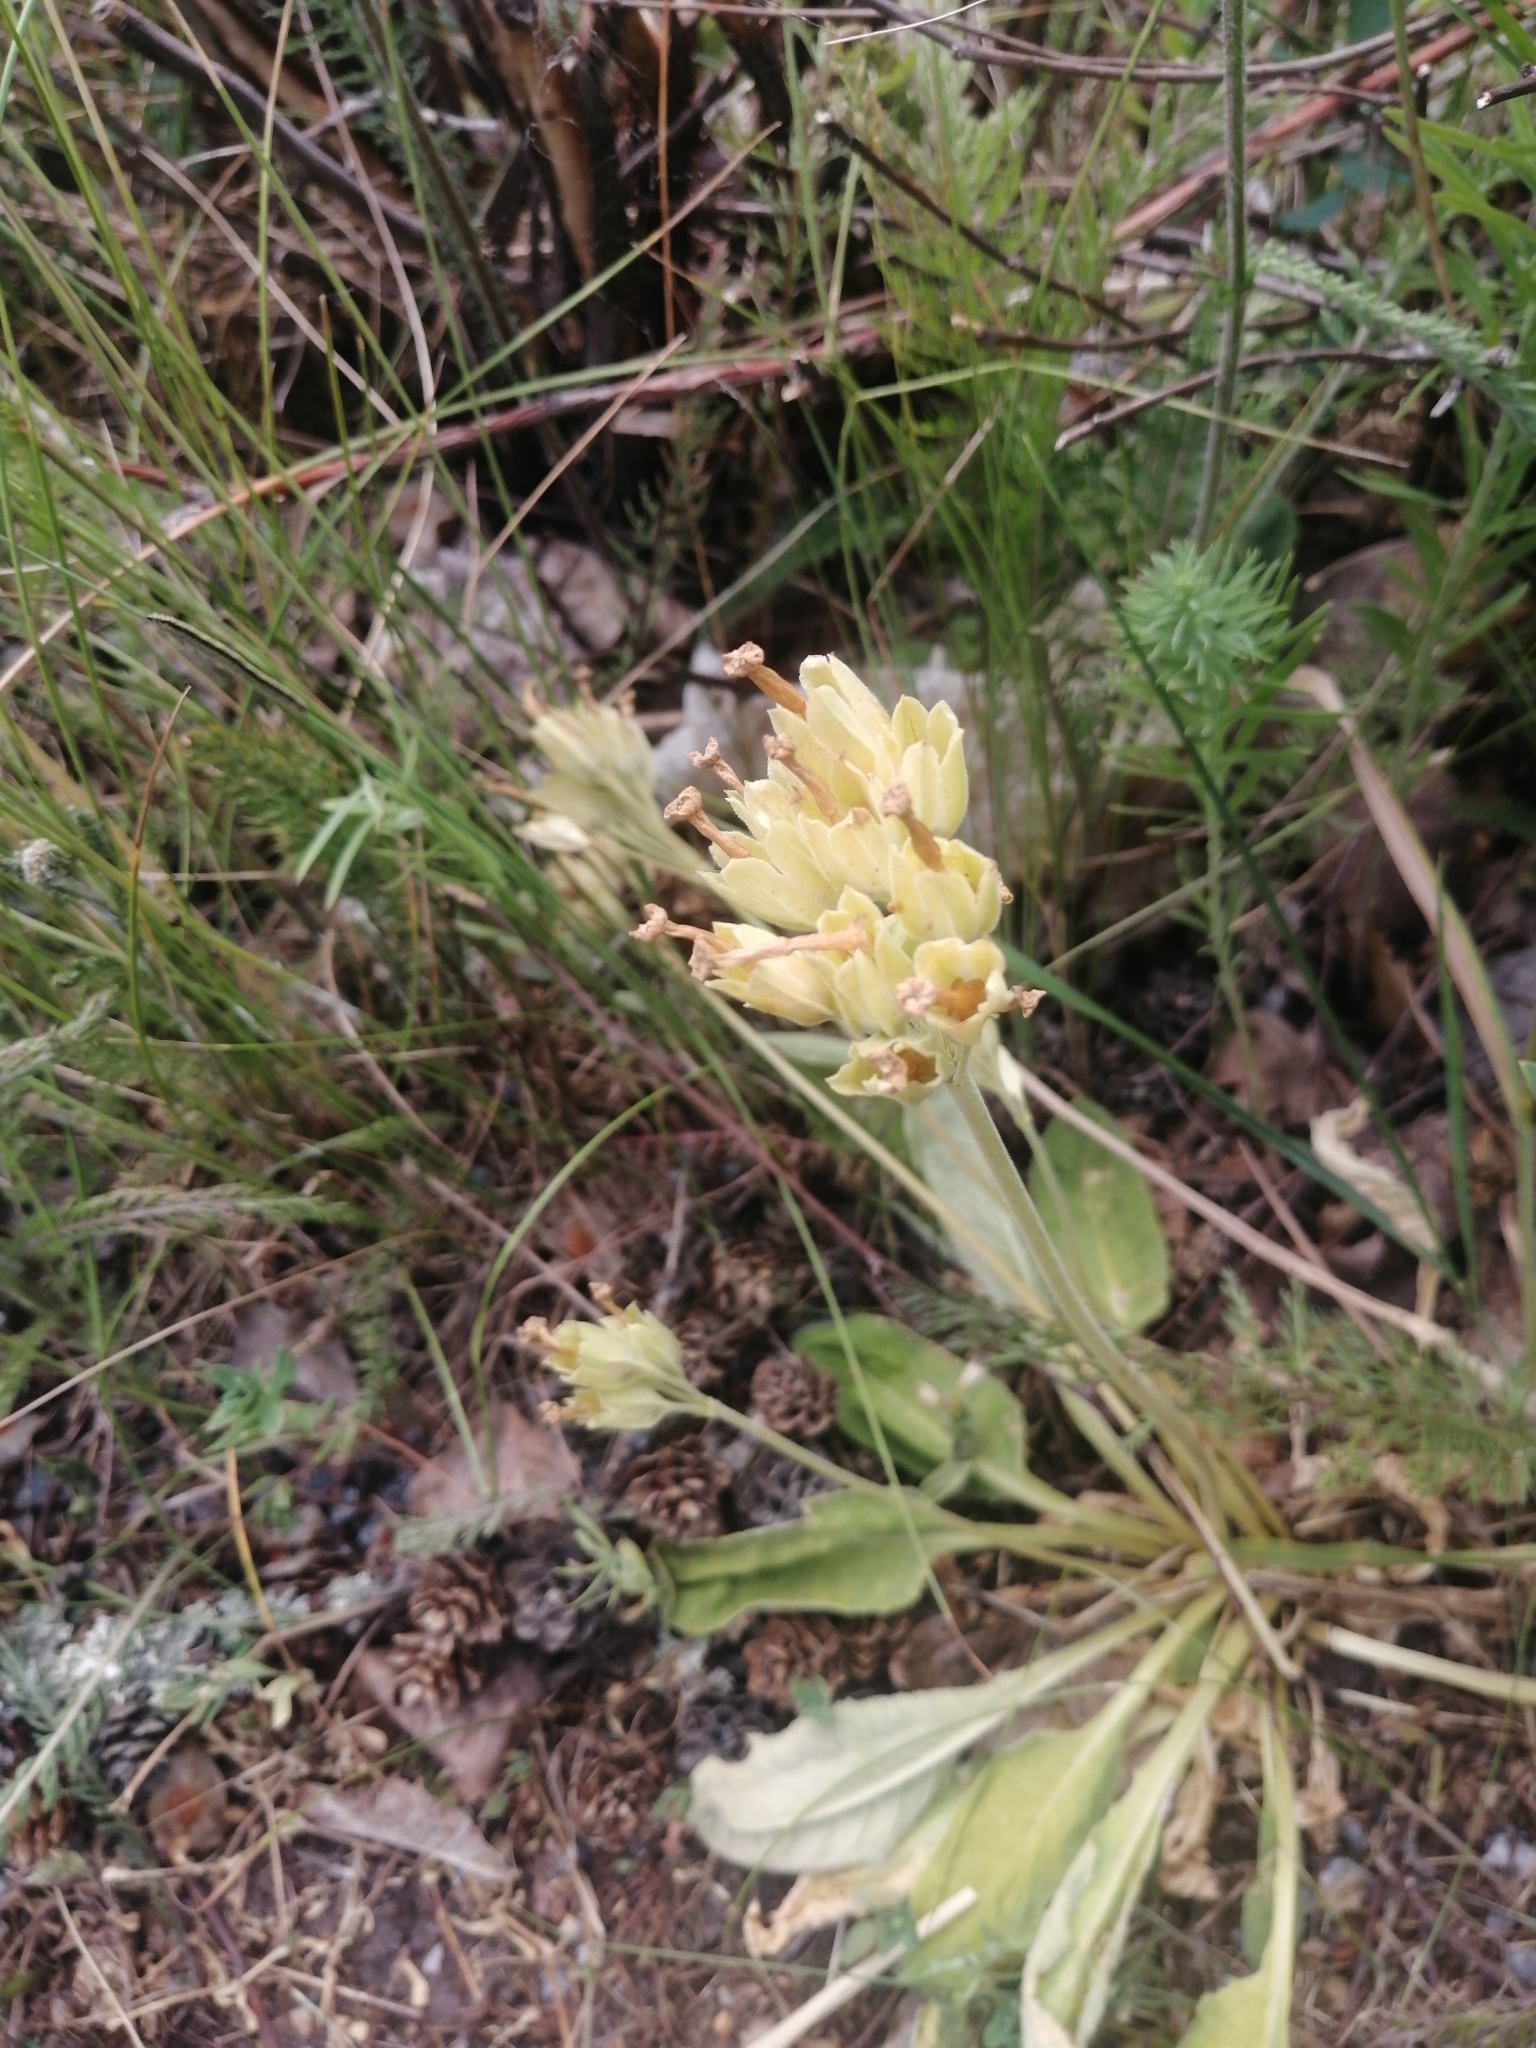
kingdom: Plantae
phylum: Tracheophyta
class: Magnoliopsida
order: Ericales
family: Primulaceae
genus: Primula
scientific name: Primula veris
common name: Cowslip
